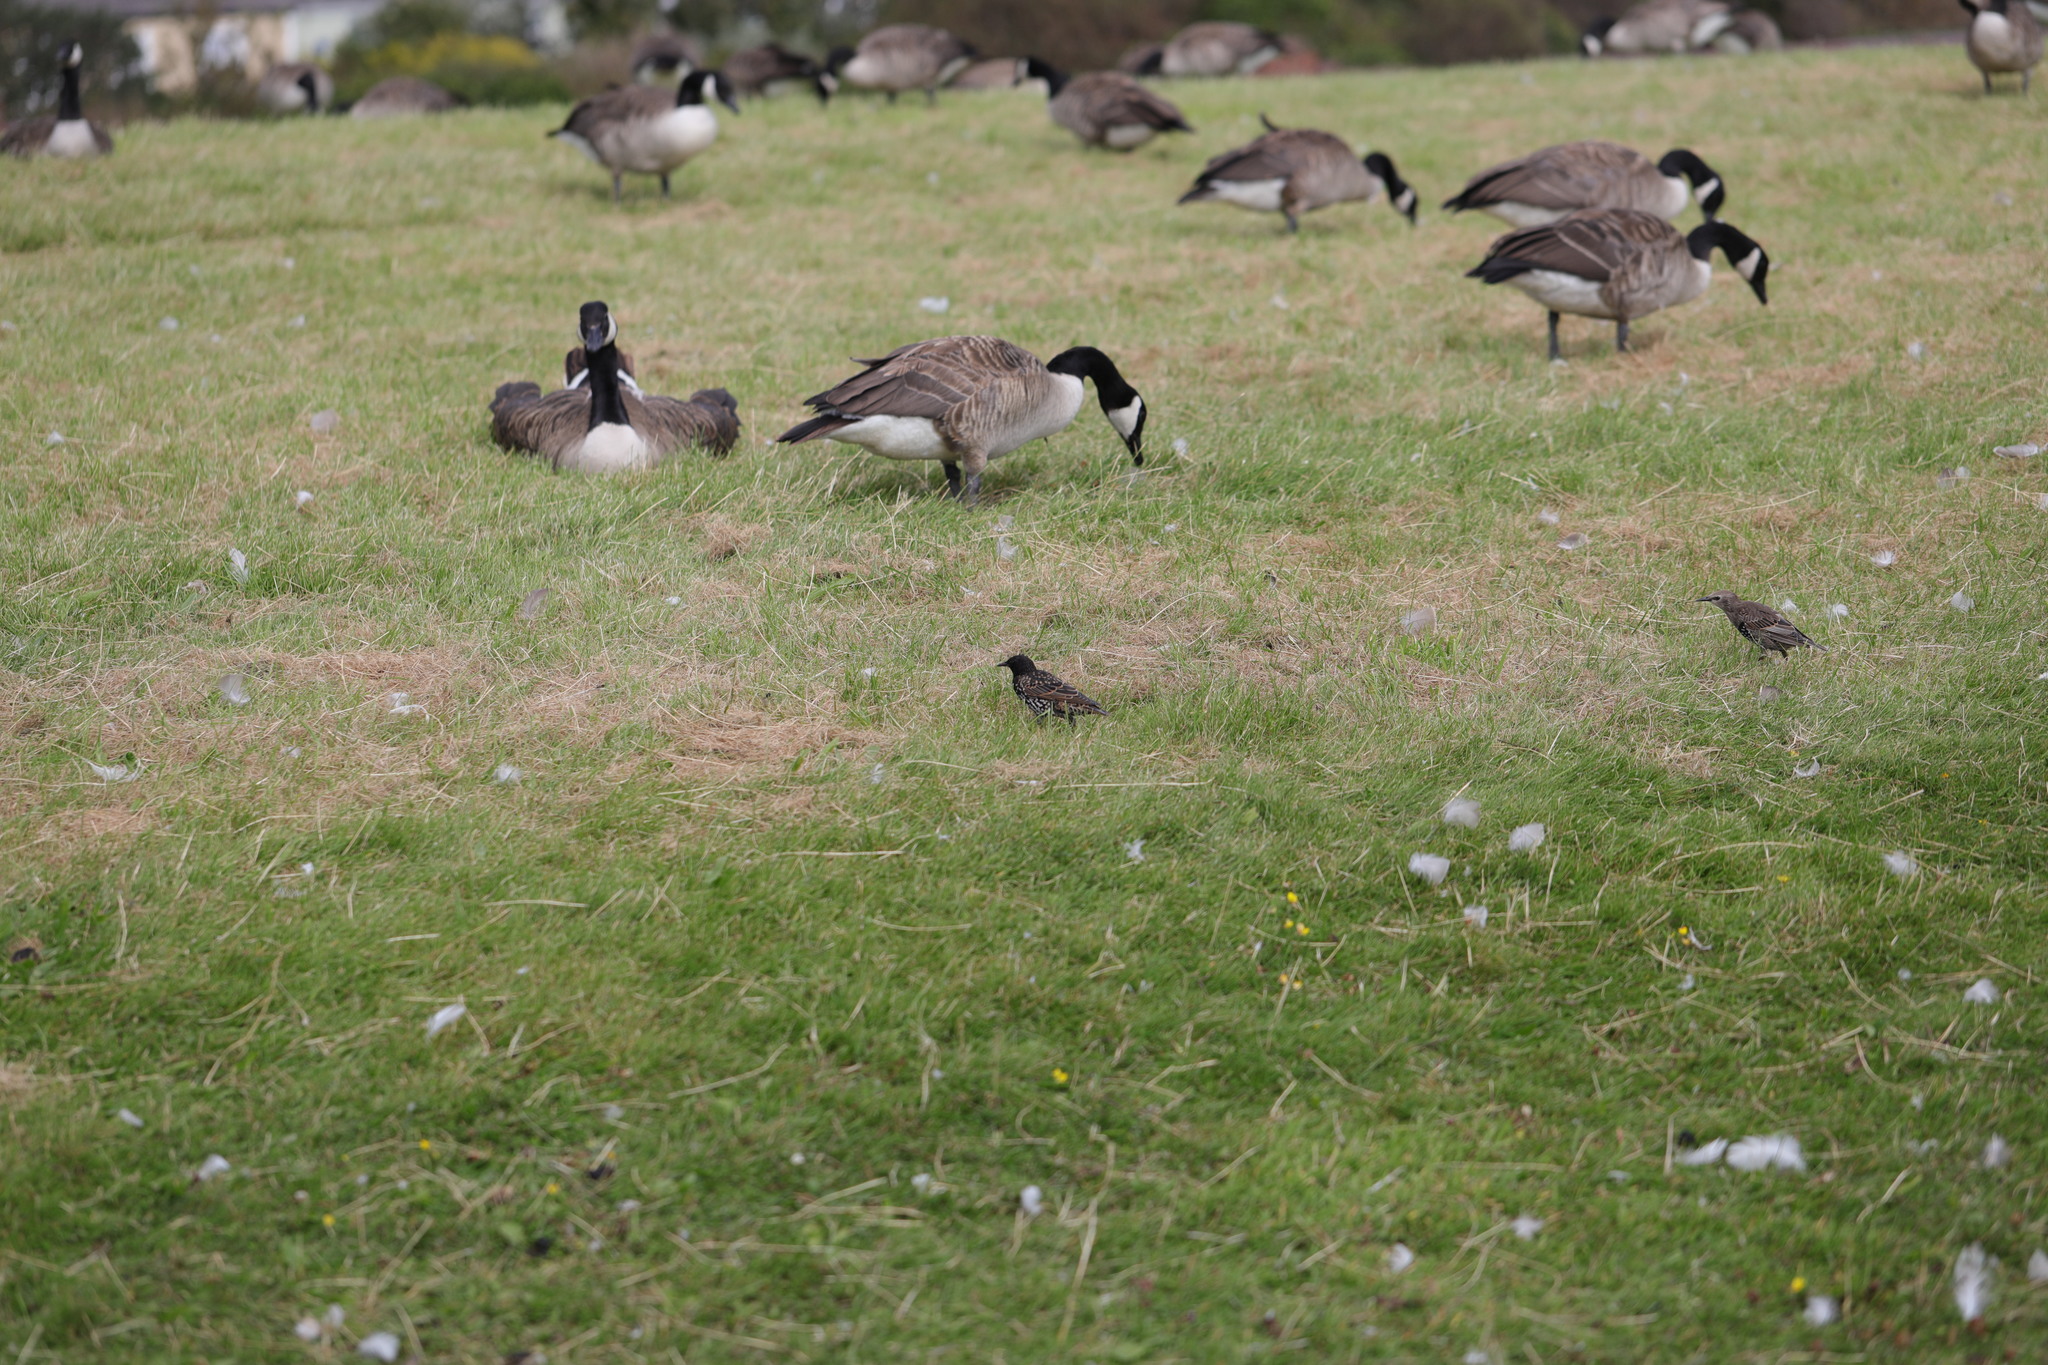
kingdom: Animalia
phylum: Chordata
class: Aves
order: Passeriformes
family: Sturnidae
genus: Sturnus
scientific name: Sturnus vulgaris
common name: Common starling
